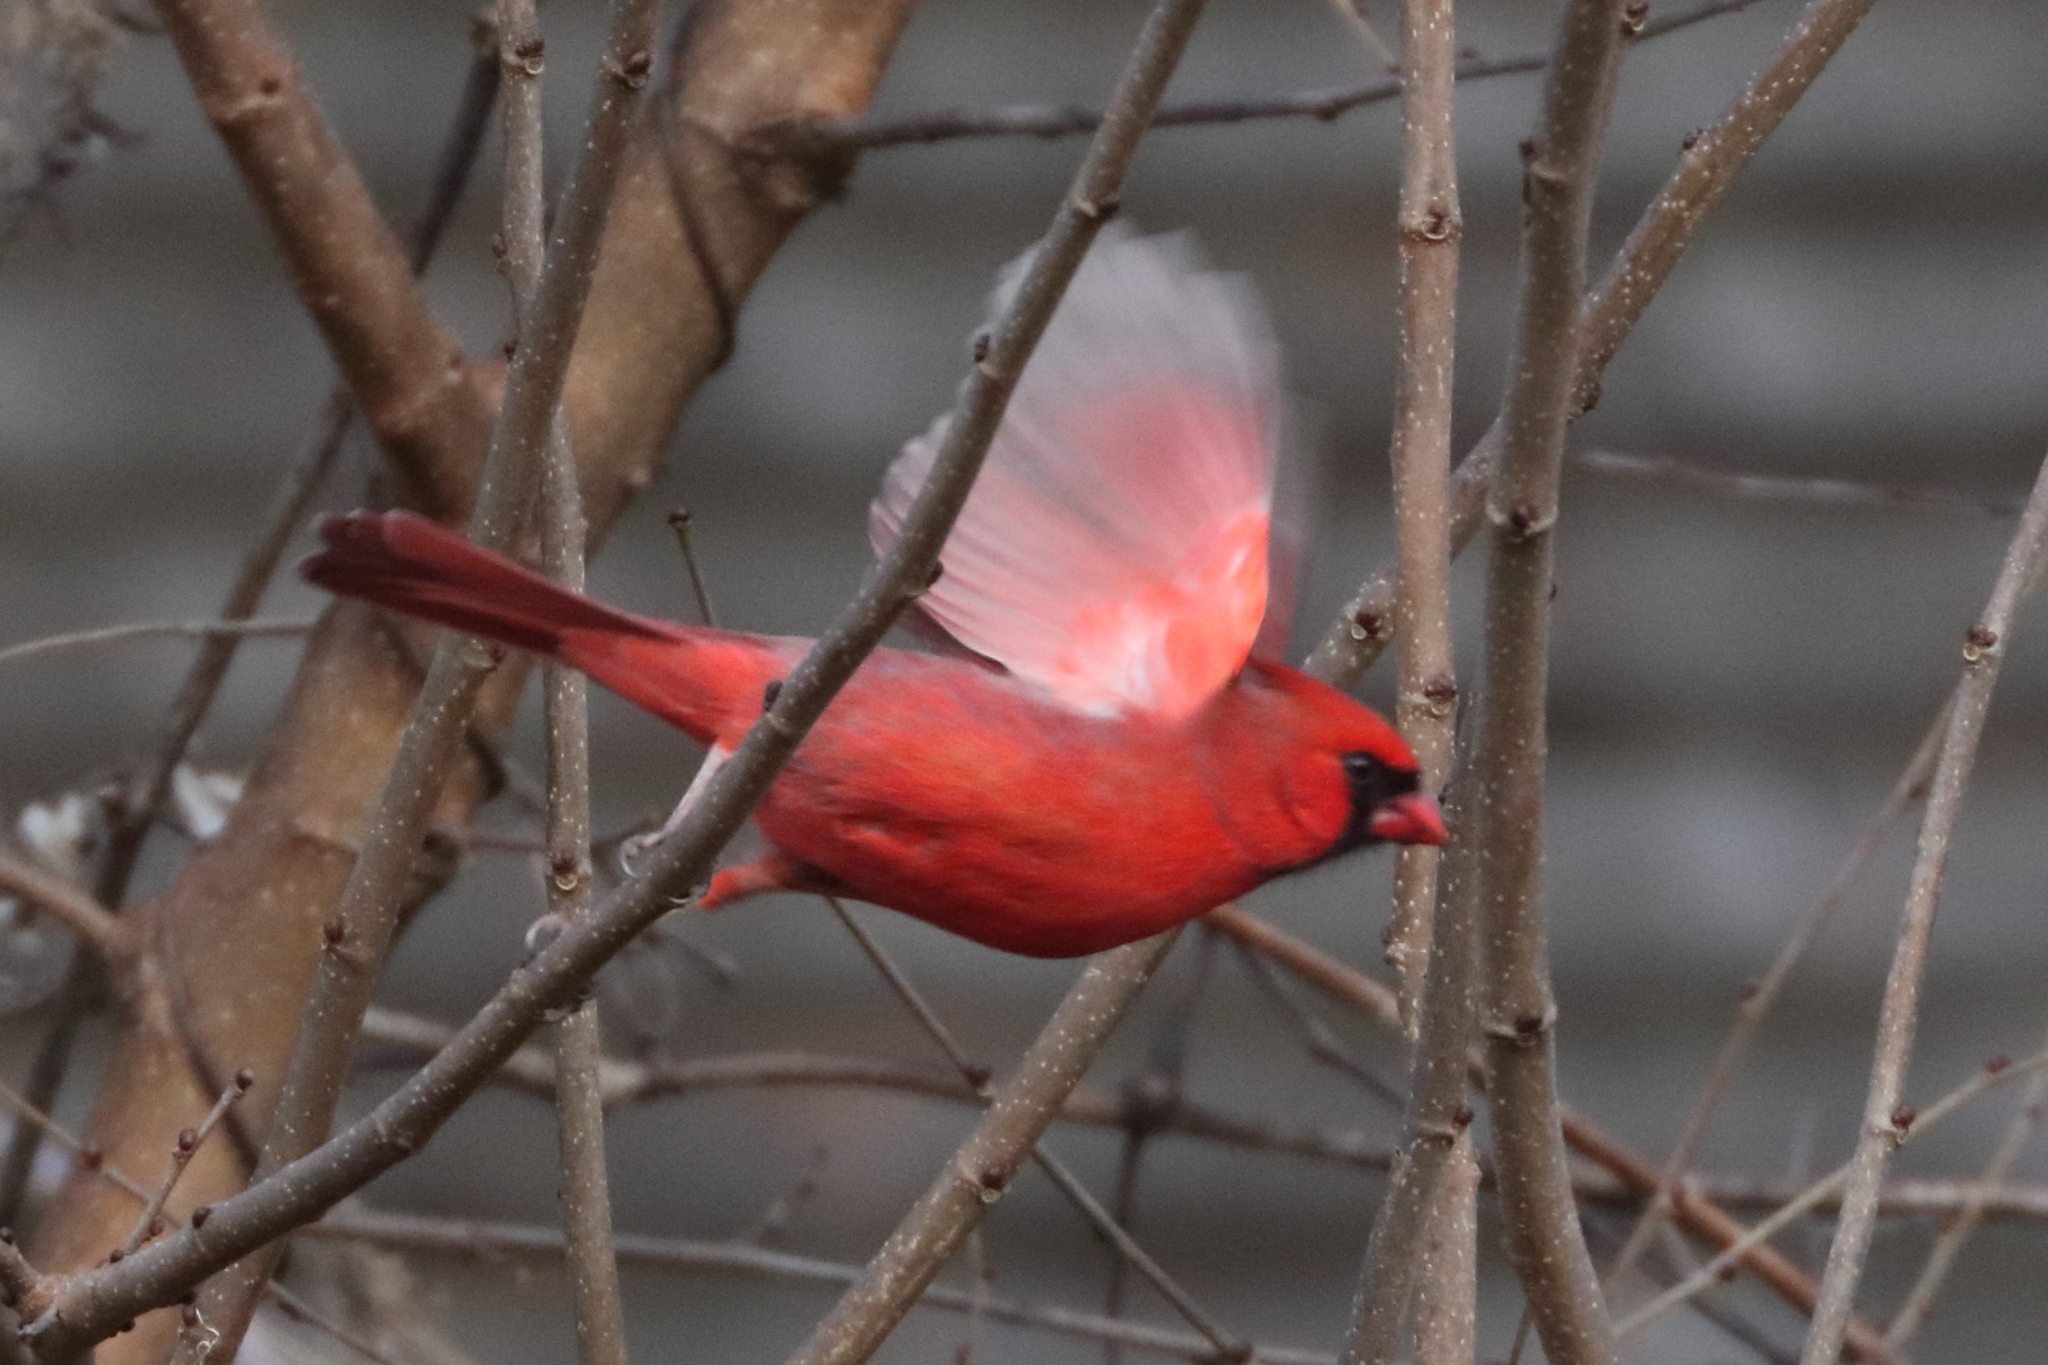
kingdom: Animalia
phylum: Chordata
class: Aves
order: Passeriformes
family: Cardinalidae
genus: Cardinalis
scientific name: Cardinalis cardinalis
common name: Northern cardinal
